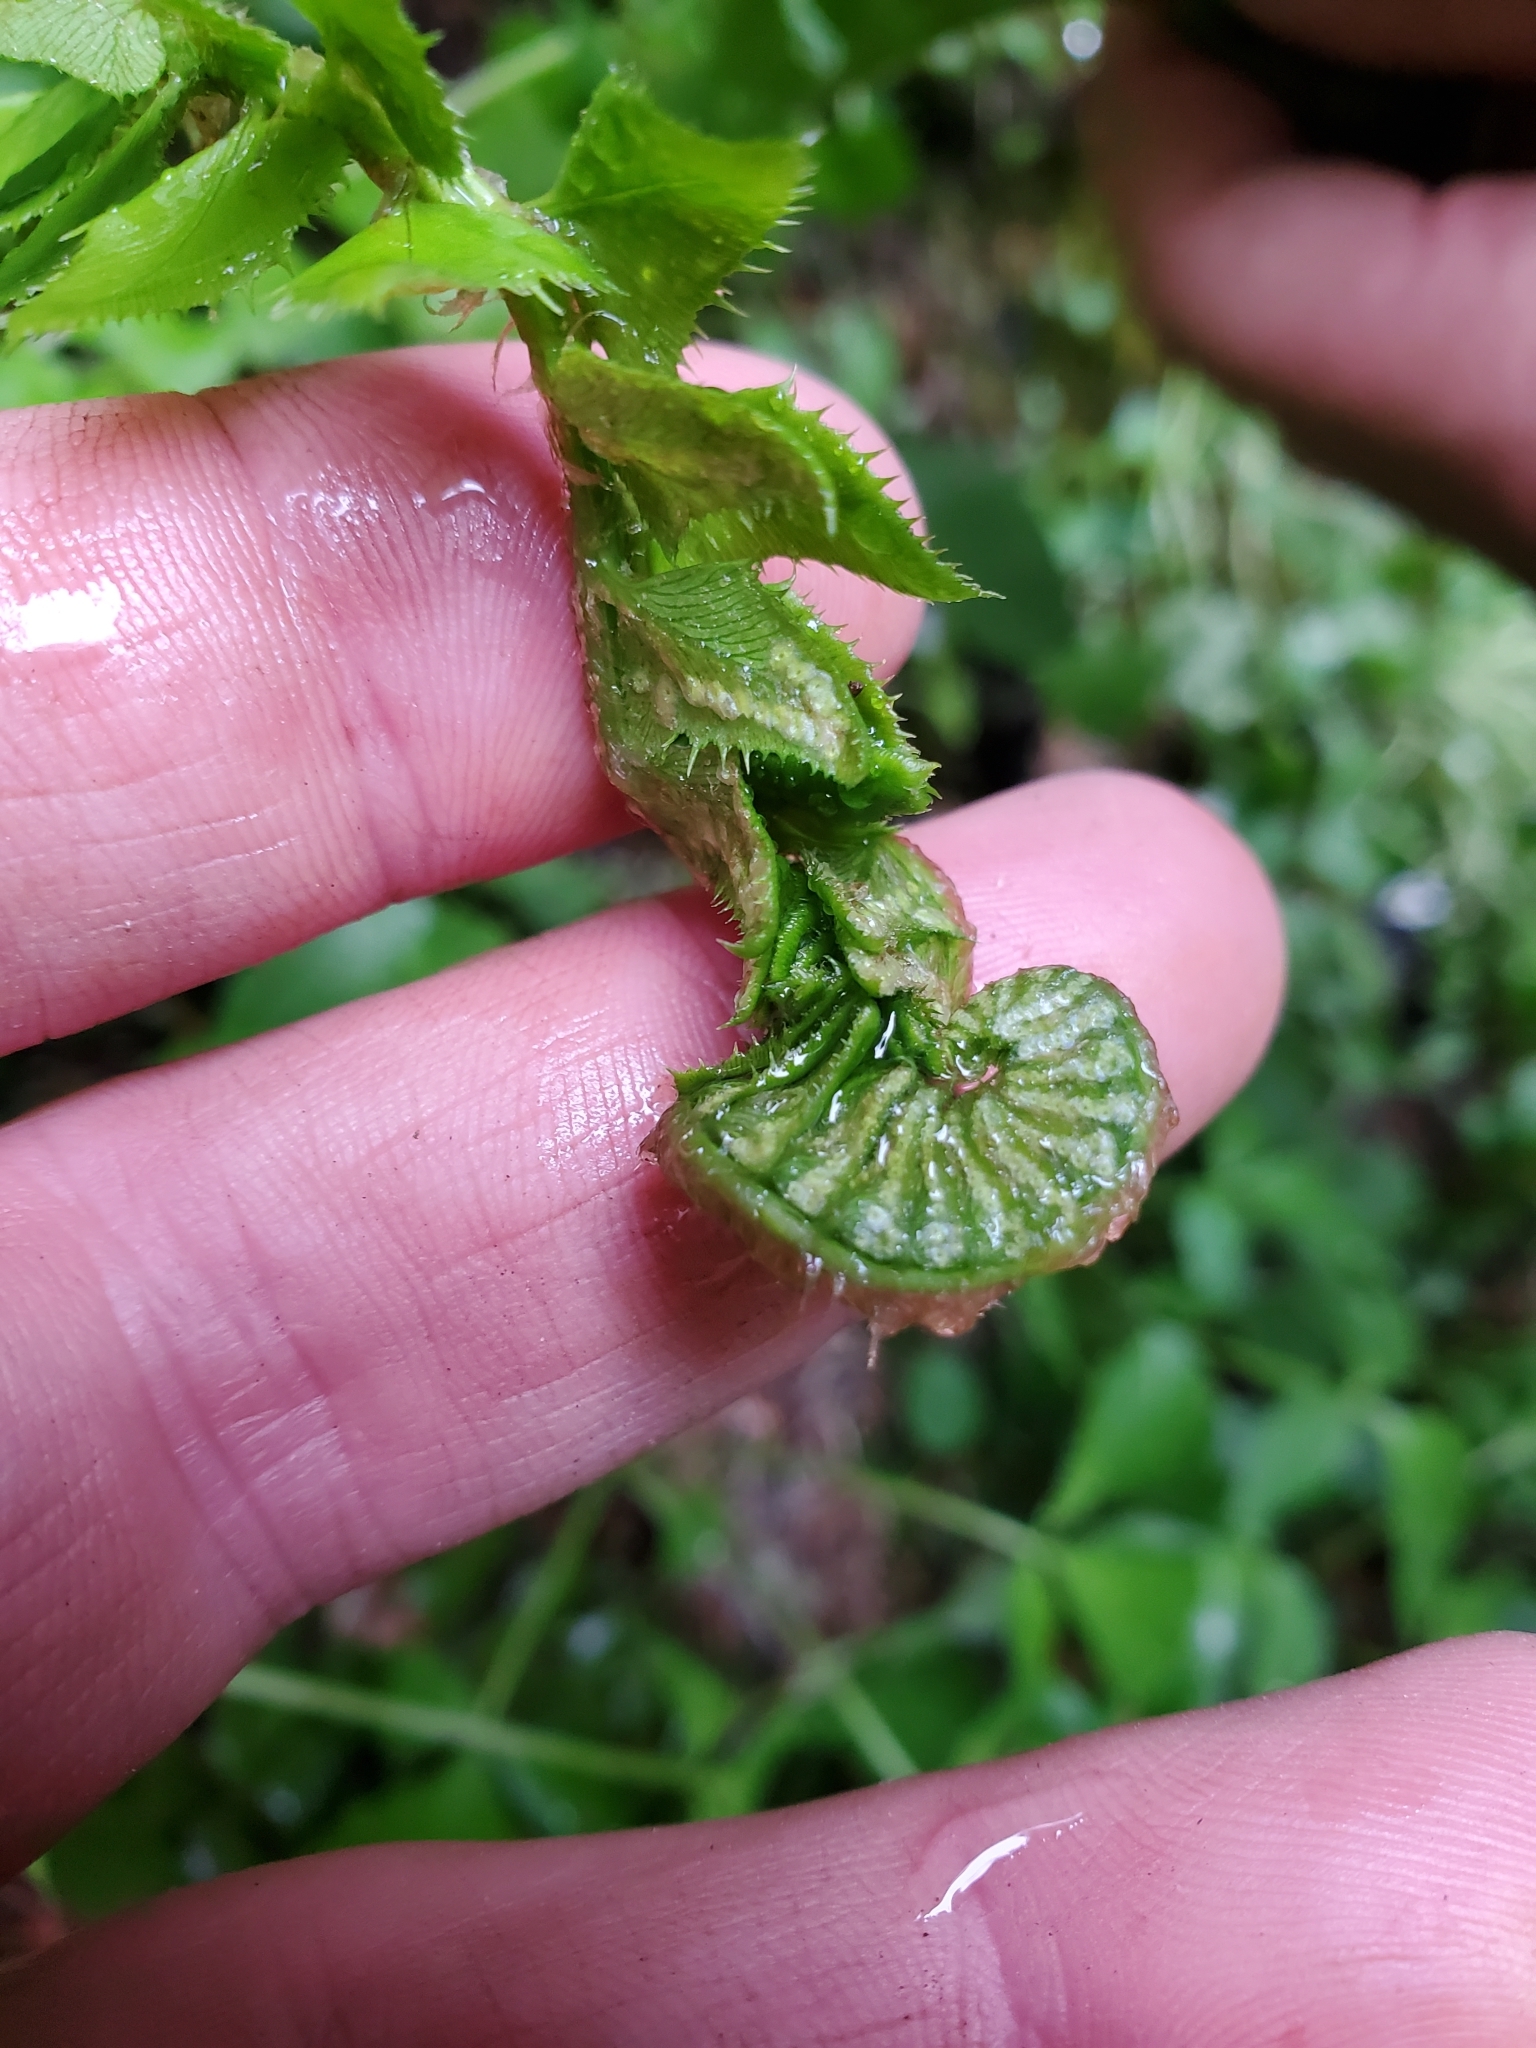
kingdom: Plantae
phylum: Tracheophyta
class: Polypodiopsida
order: Polypodiales
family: Dryopteridaceae
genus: Polystichum
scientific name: Polystichum lonchitis
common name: Holly fern
